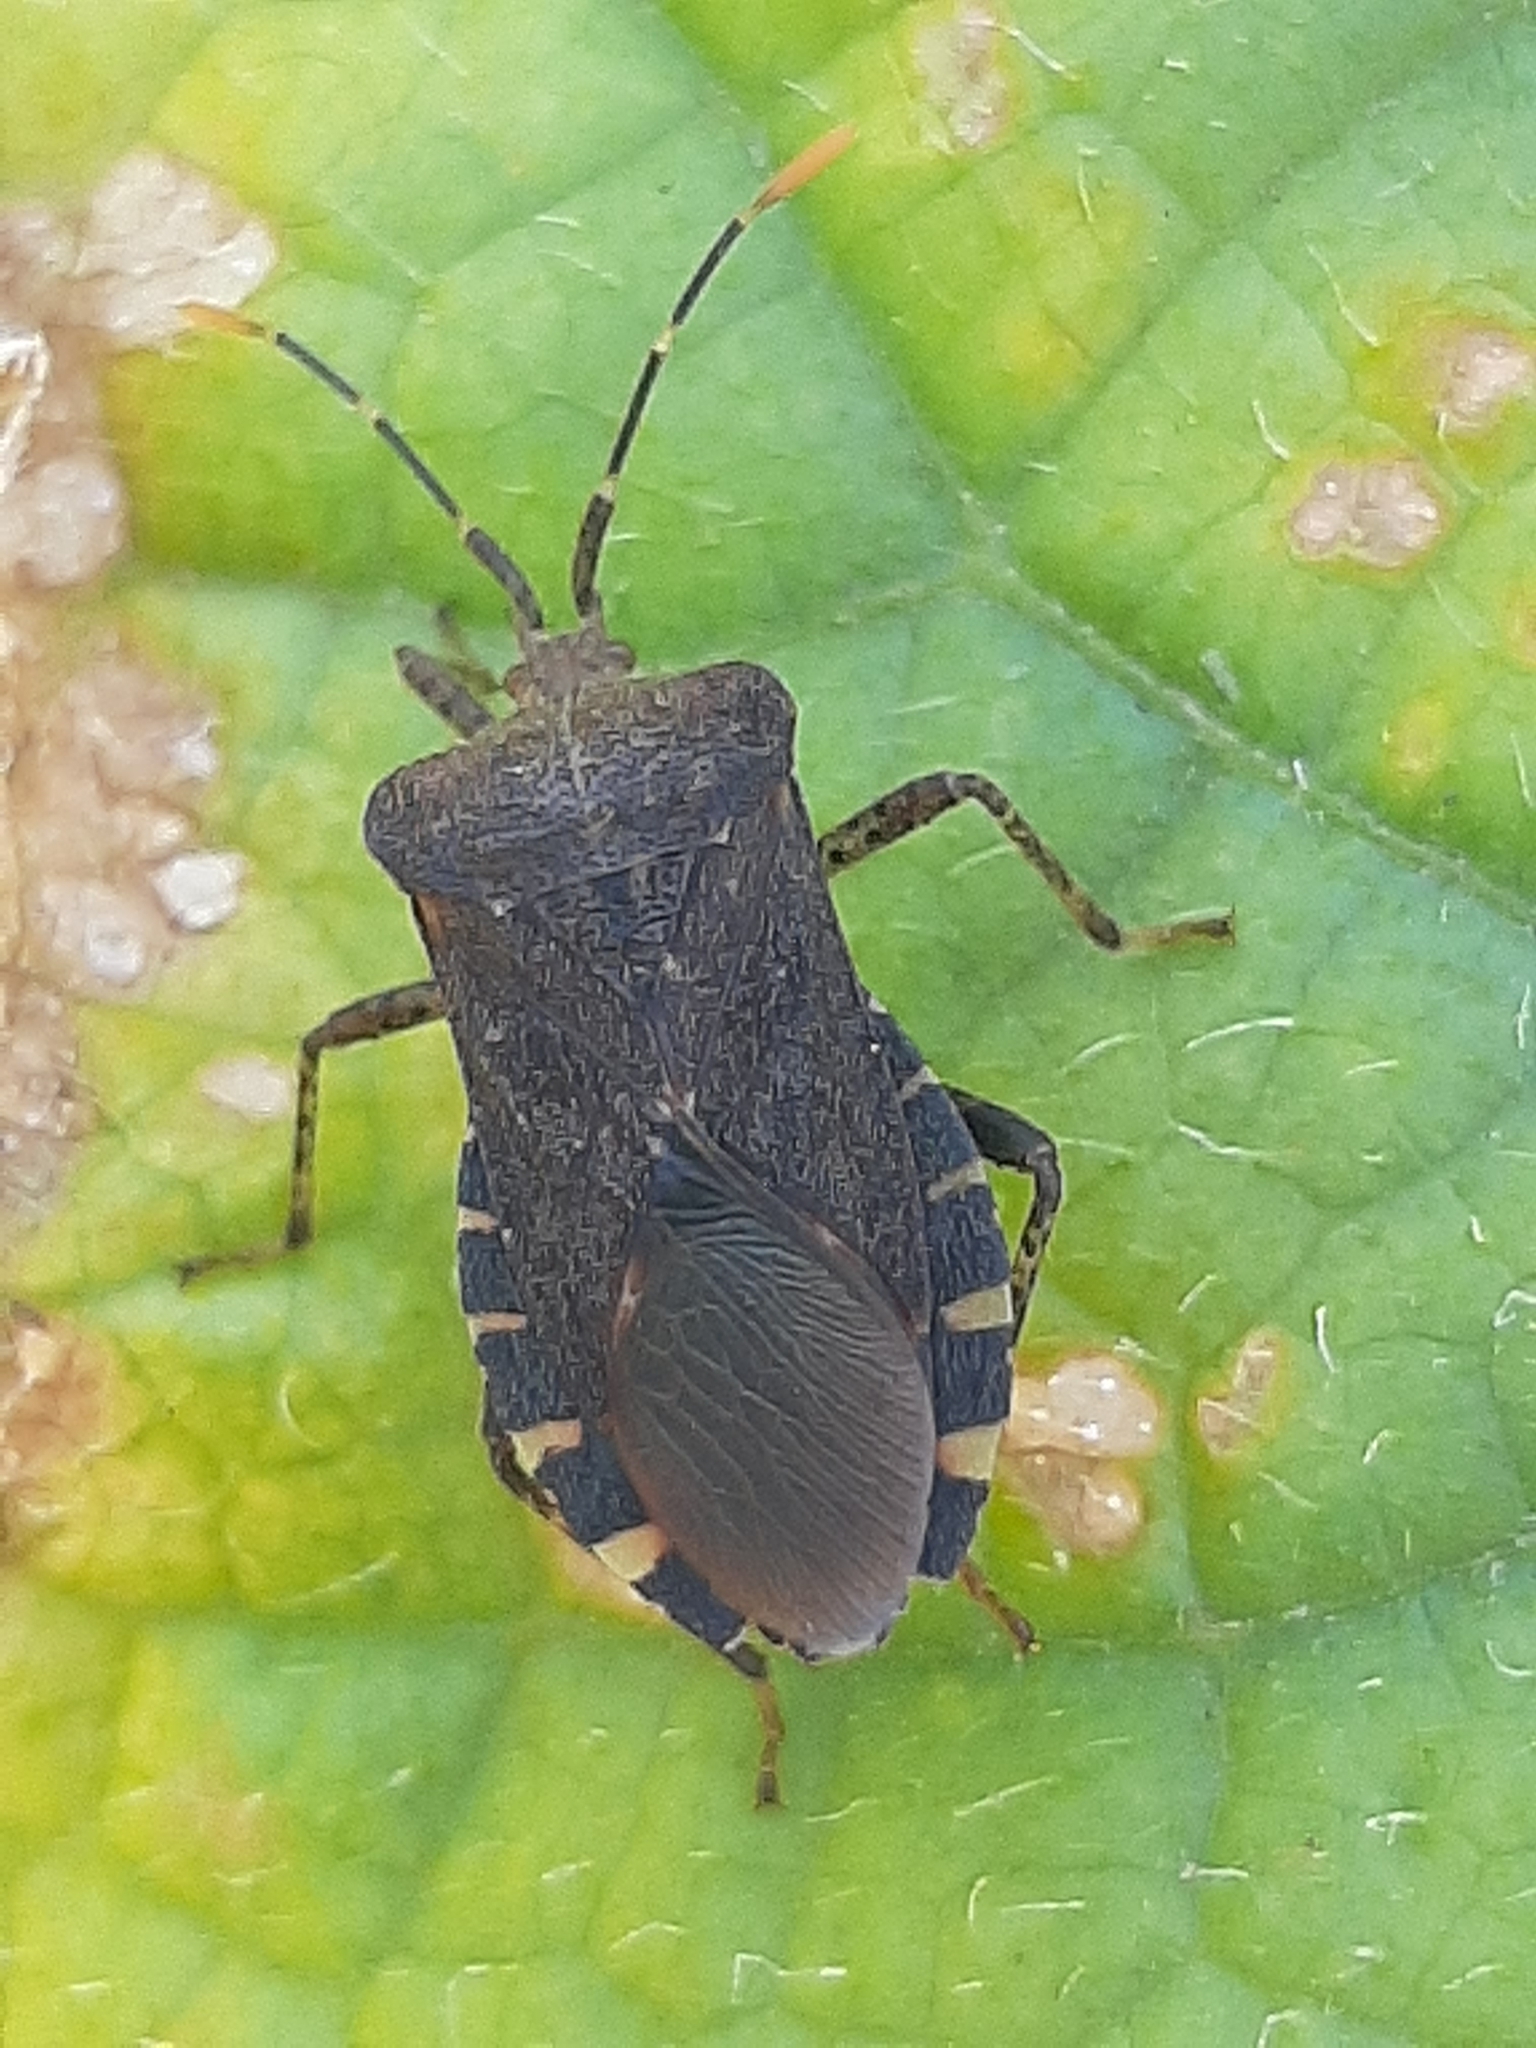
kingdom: Animalia
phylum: Arthropoda
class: Insecta
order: Hemiptera
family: Coreidae
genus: Anasa
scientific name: Anasa armigera
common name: Horned squash bug
